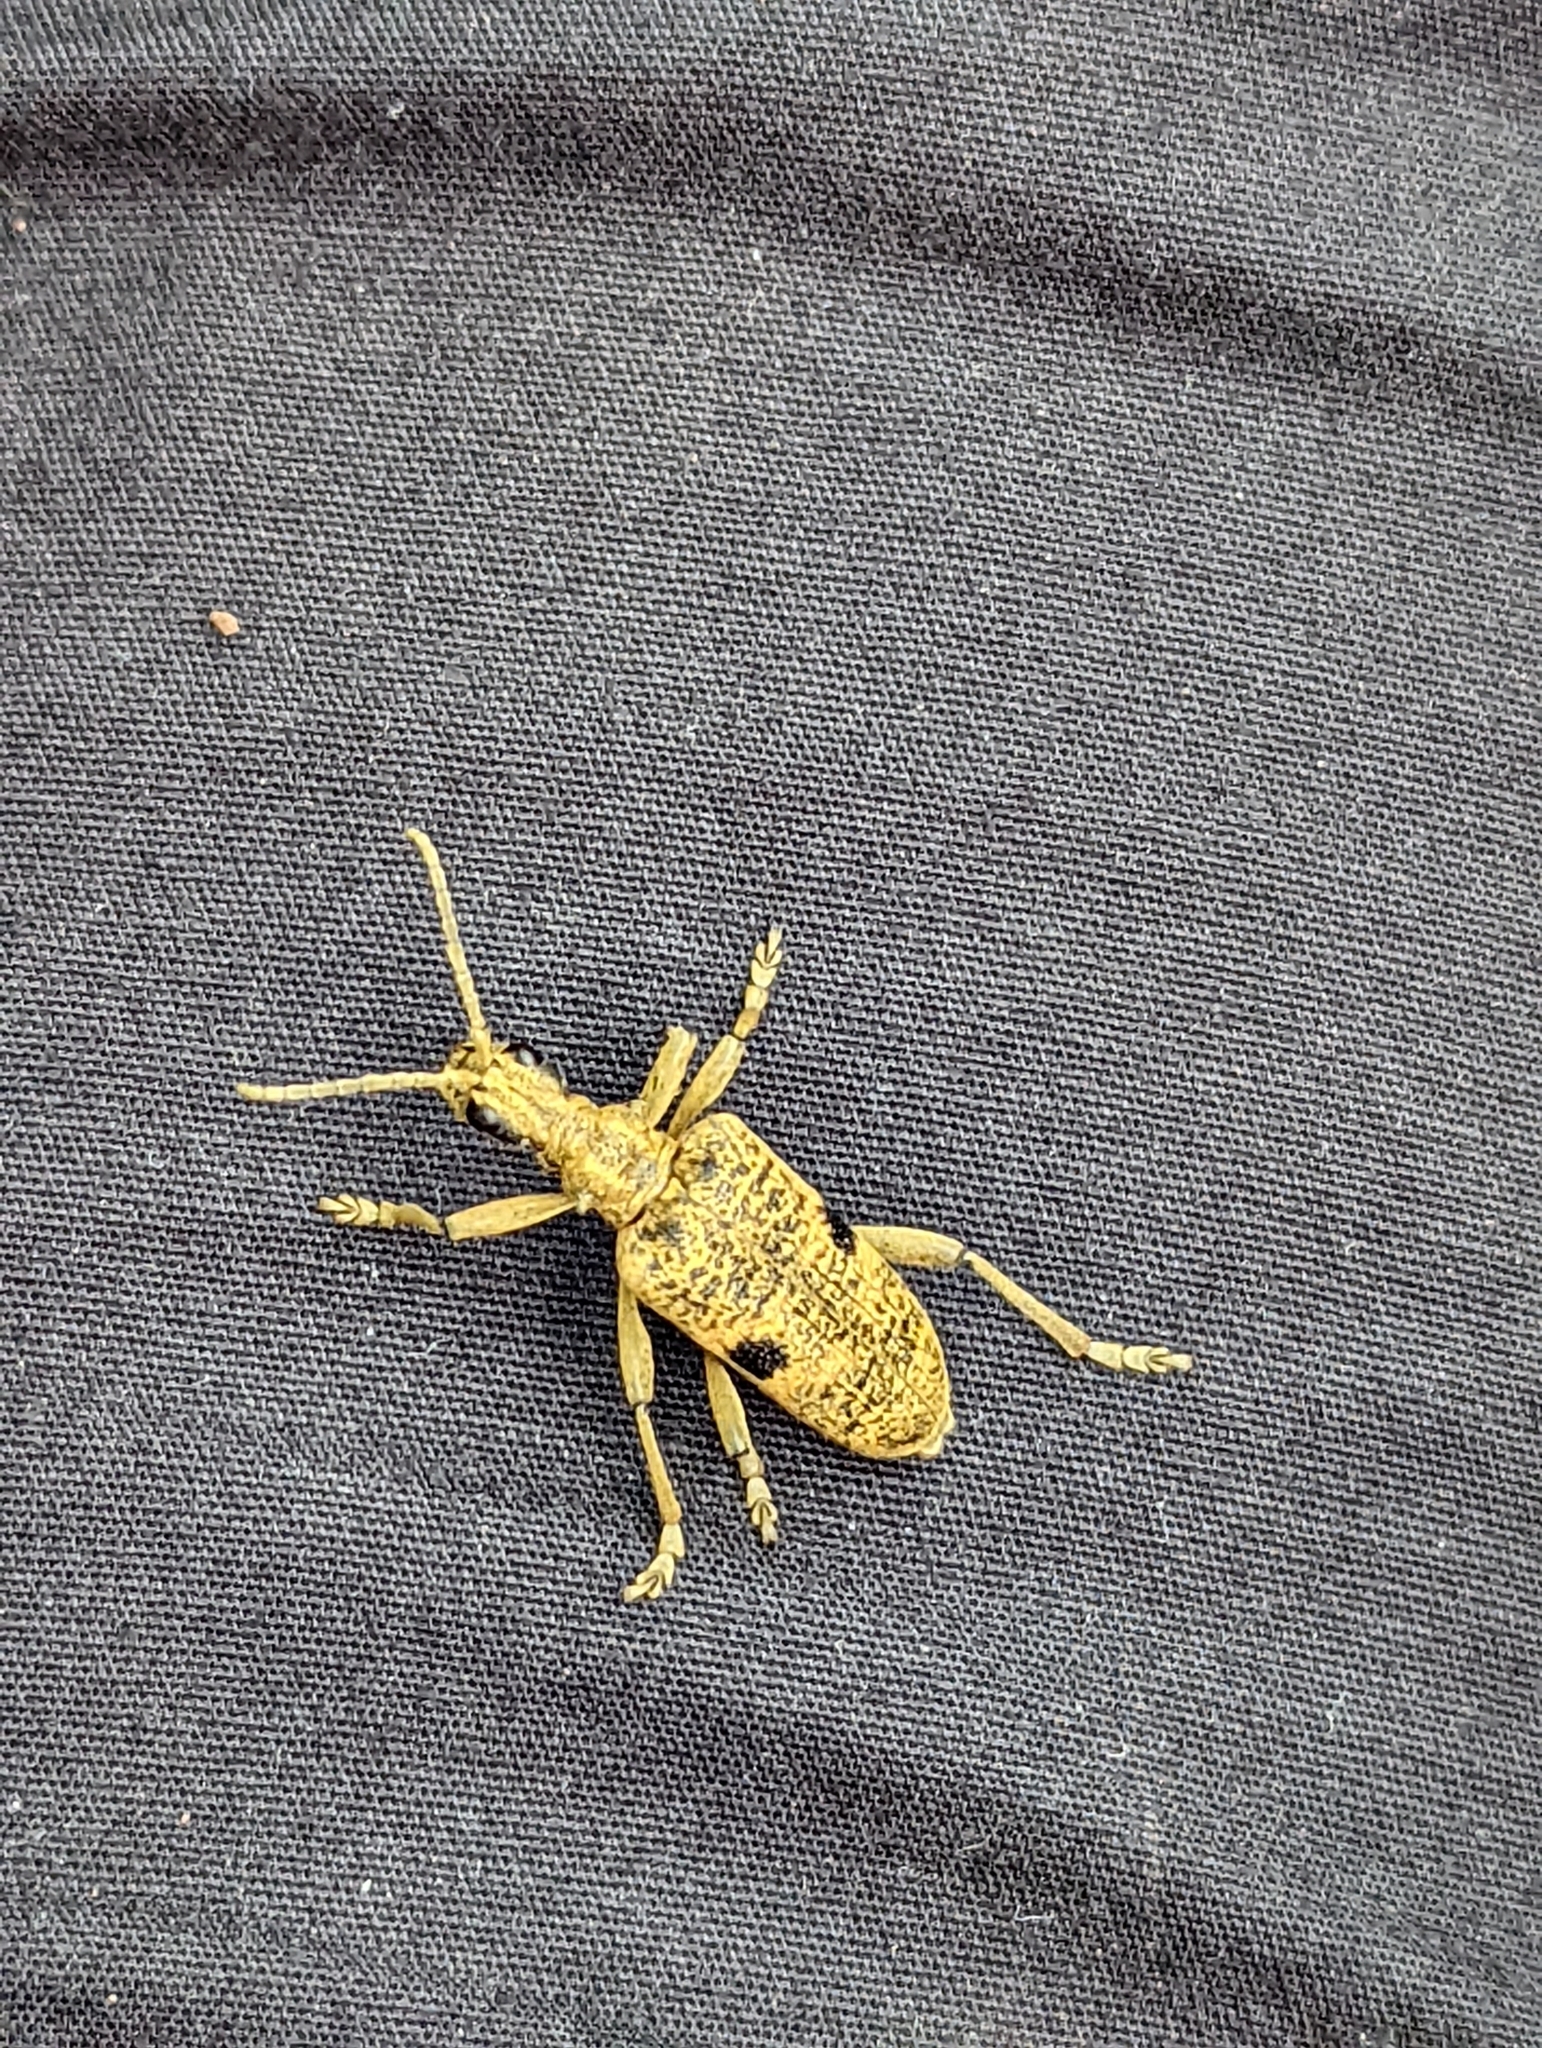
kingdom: Animalia
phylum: Arthropoda
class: Insecta
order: Coleoptera
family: Cerambycidae
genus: Rhagium
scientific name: Rhagium mordax
